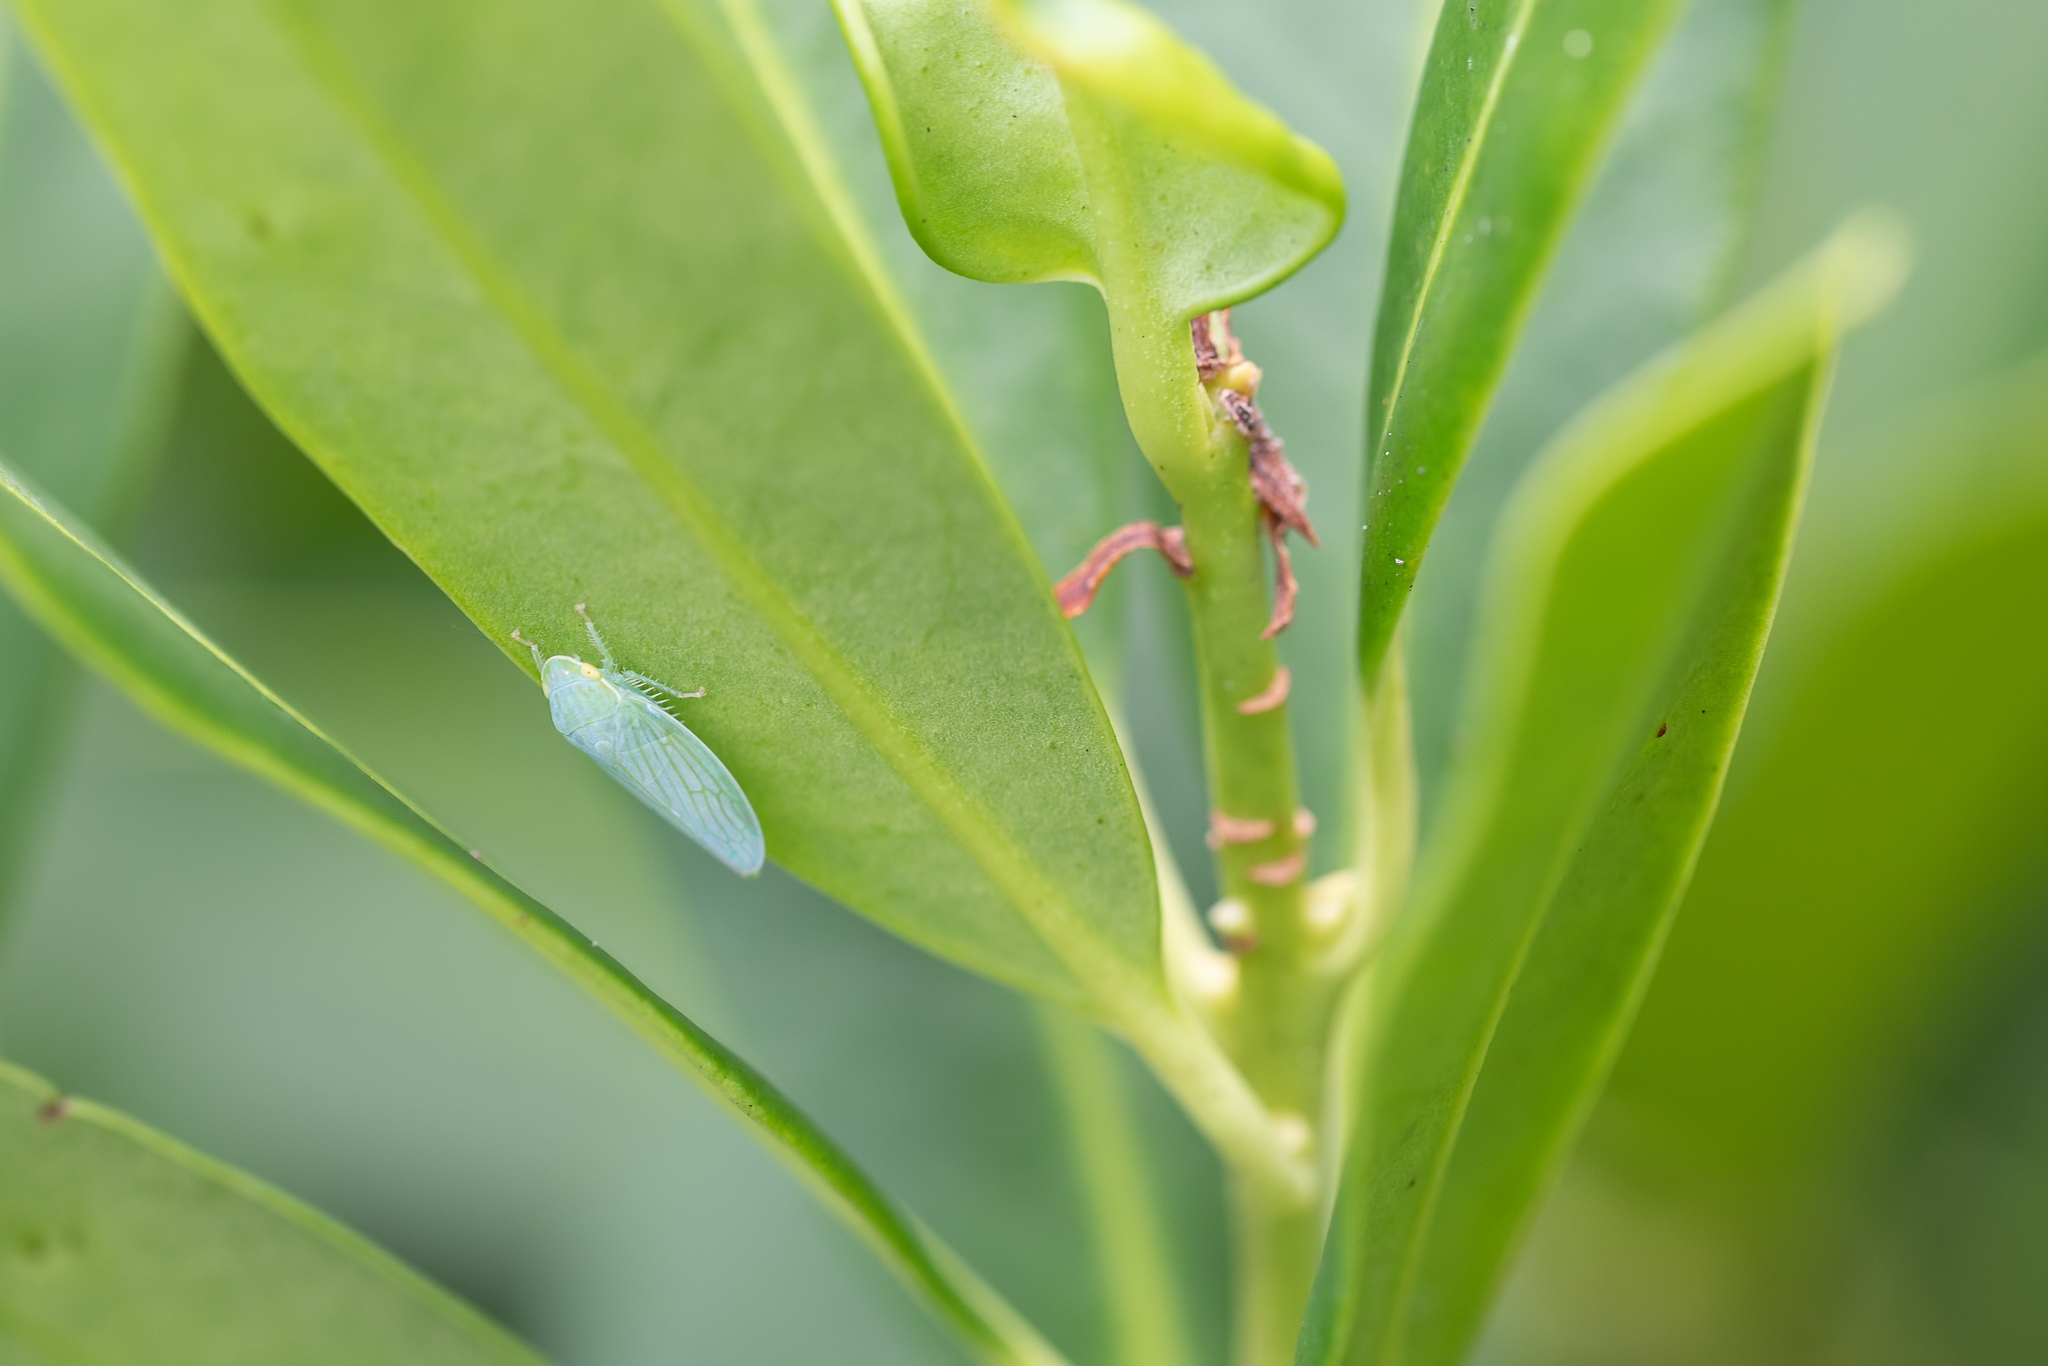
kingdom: Animalia
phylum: Arthropoda
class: Insecta
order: Hemiptera
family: Cicadellidae
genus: Gyponana
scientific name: Gyponana tenella
